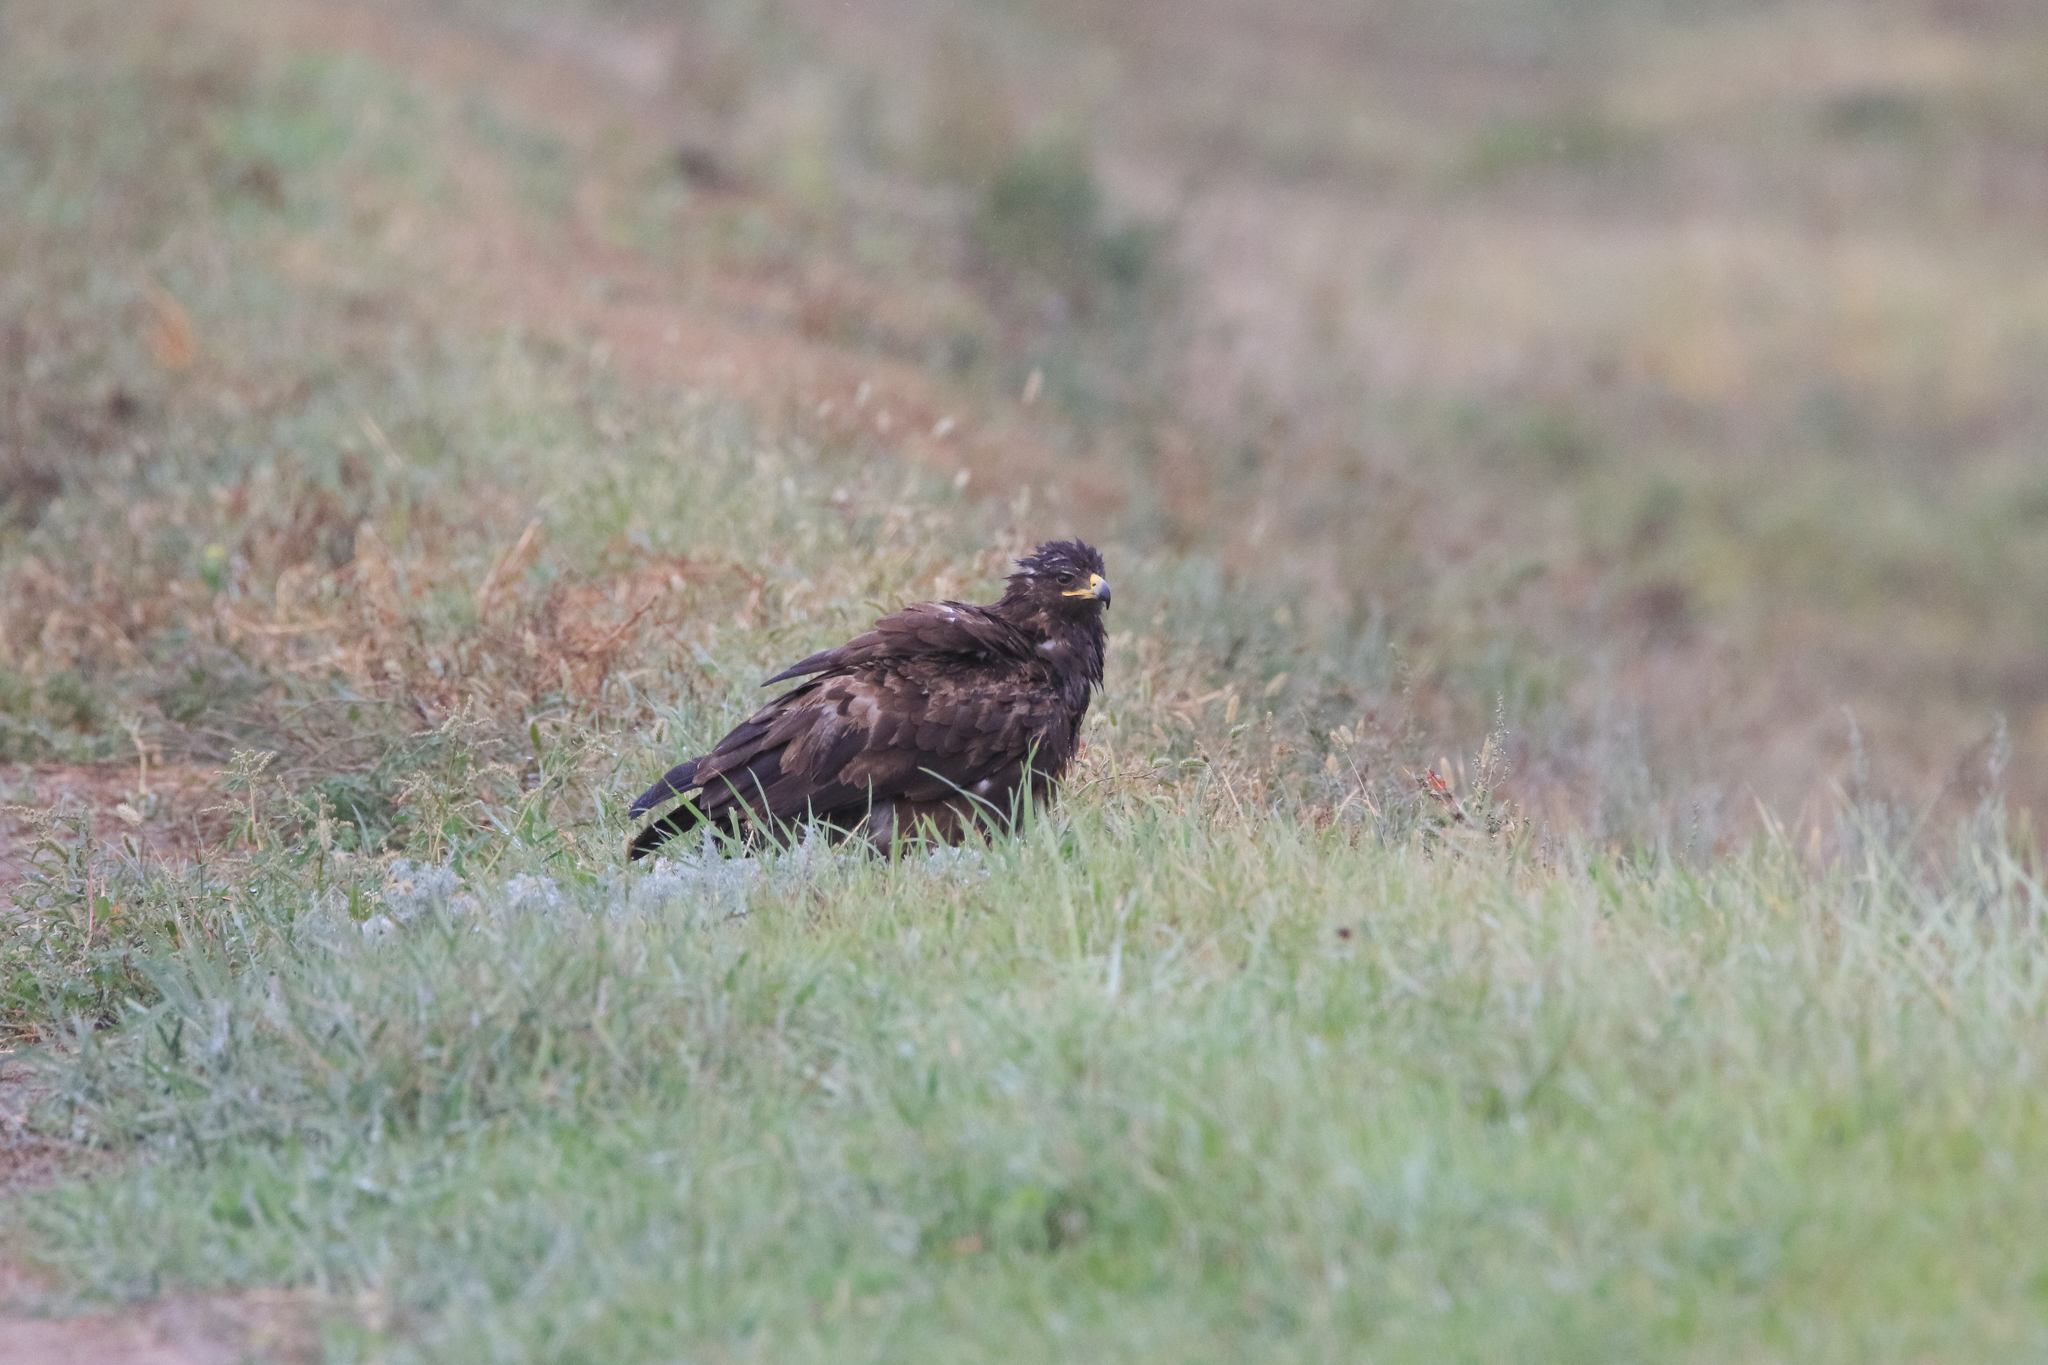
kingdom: Animalia
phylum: Chordata
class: Aves
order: Accipitriformes
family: Accipitridae
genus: Aquila
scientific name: Aquila clanga
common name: Greater spotted eagle
